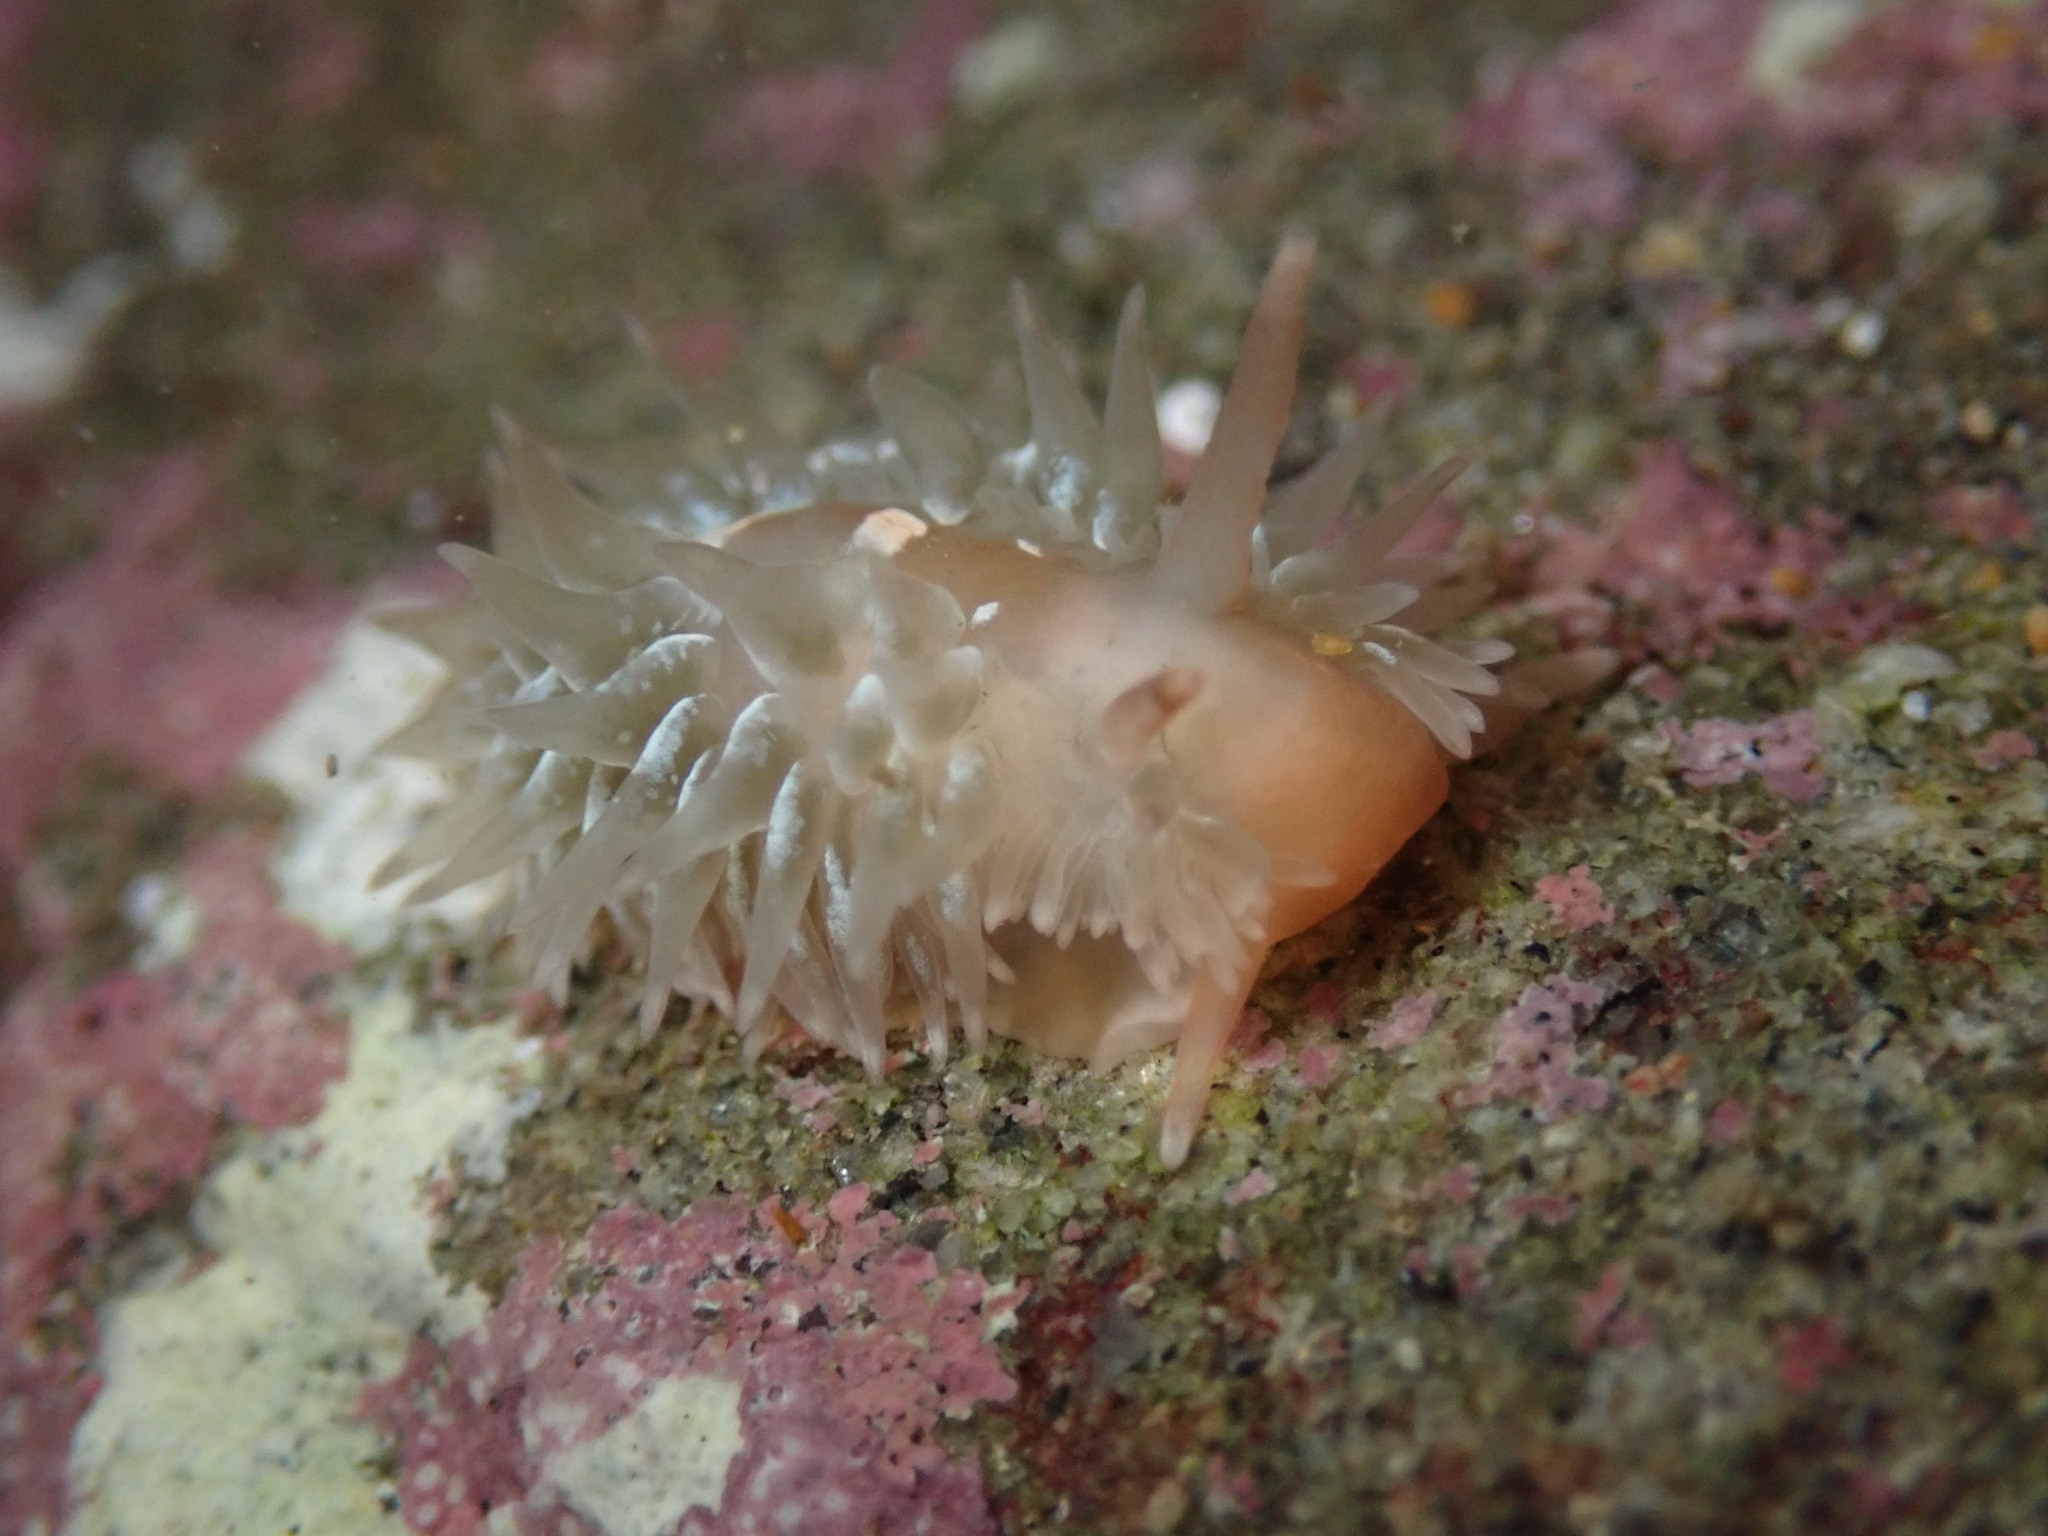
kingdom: Animalia
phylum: Mollusca
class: Gastropoda
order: Nudibranchia
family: Aeolidiidae
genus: Aeolidia
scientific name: Aeolidia loui
